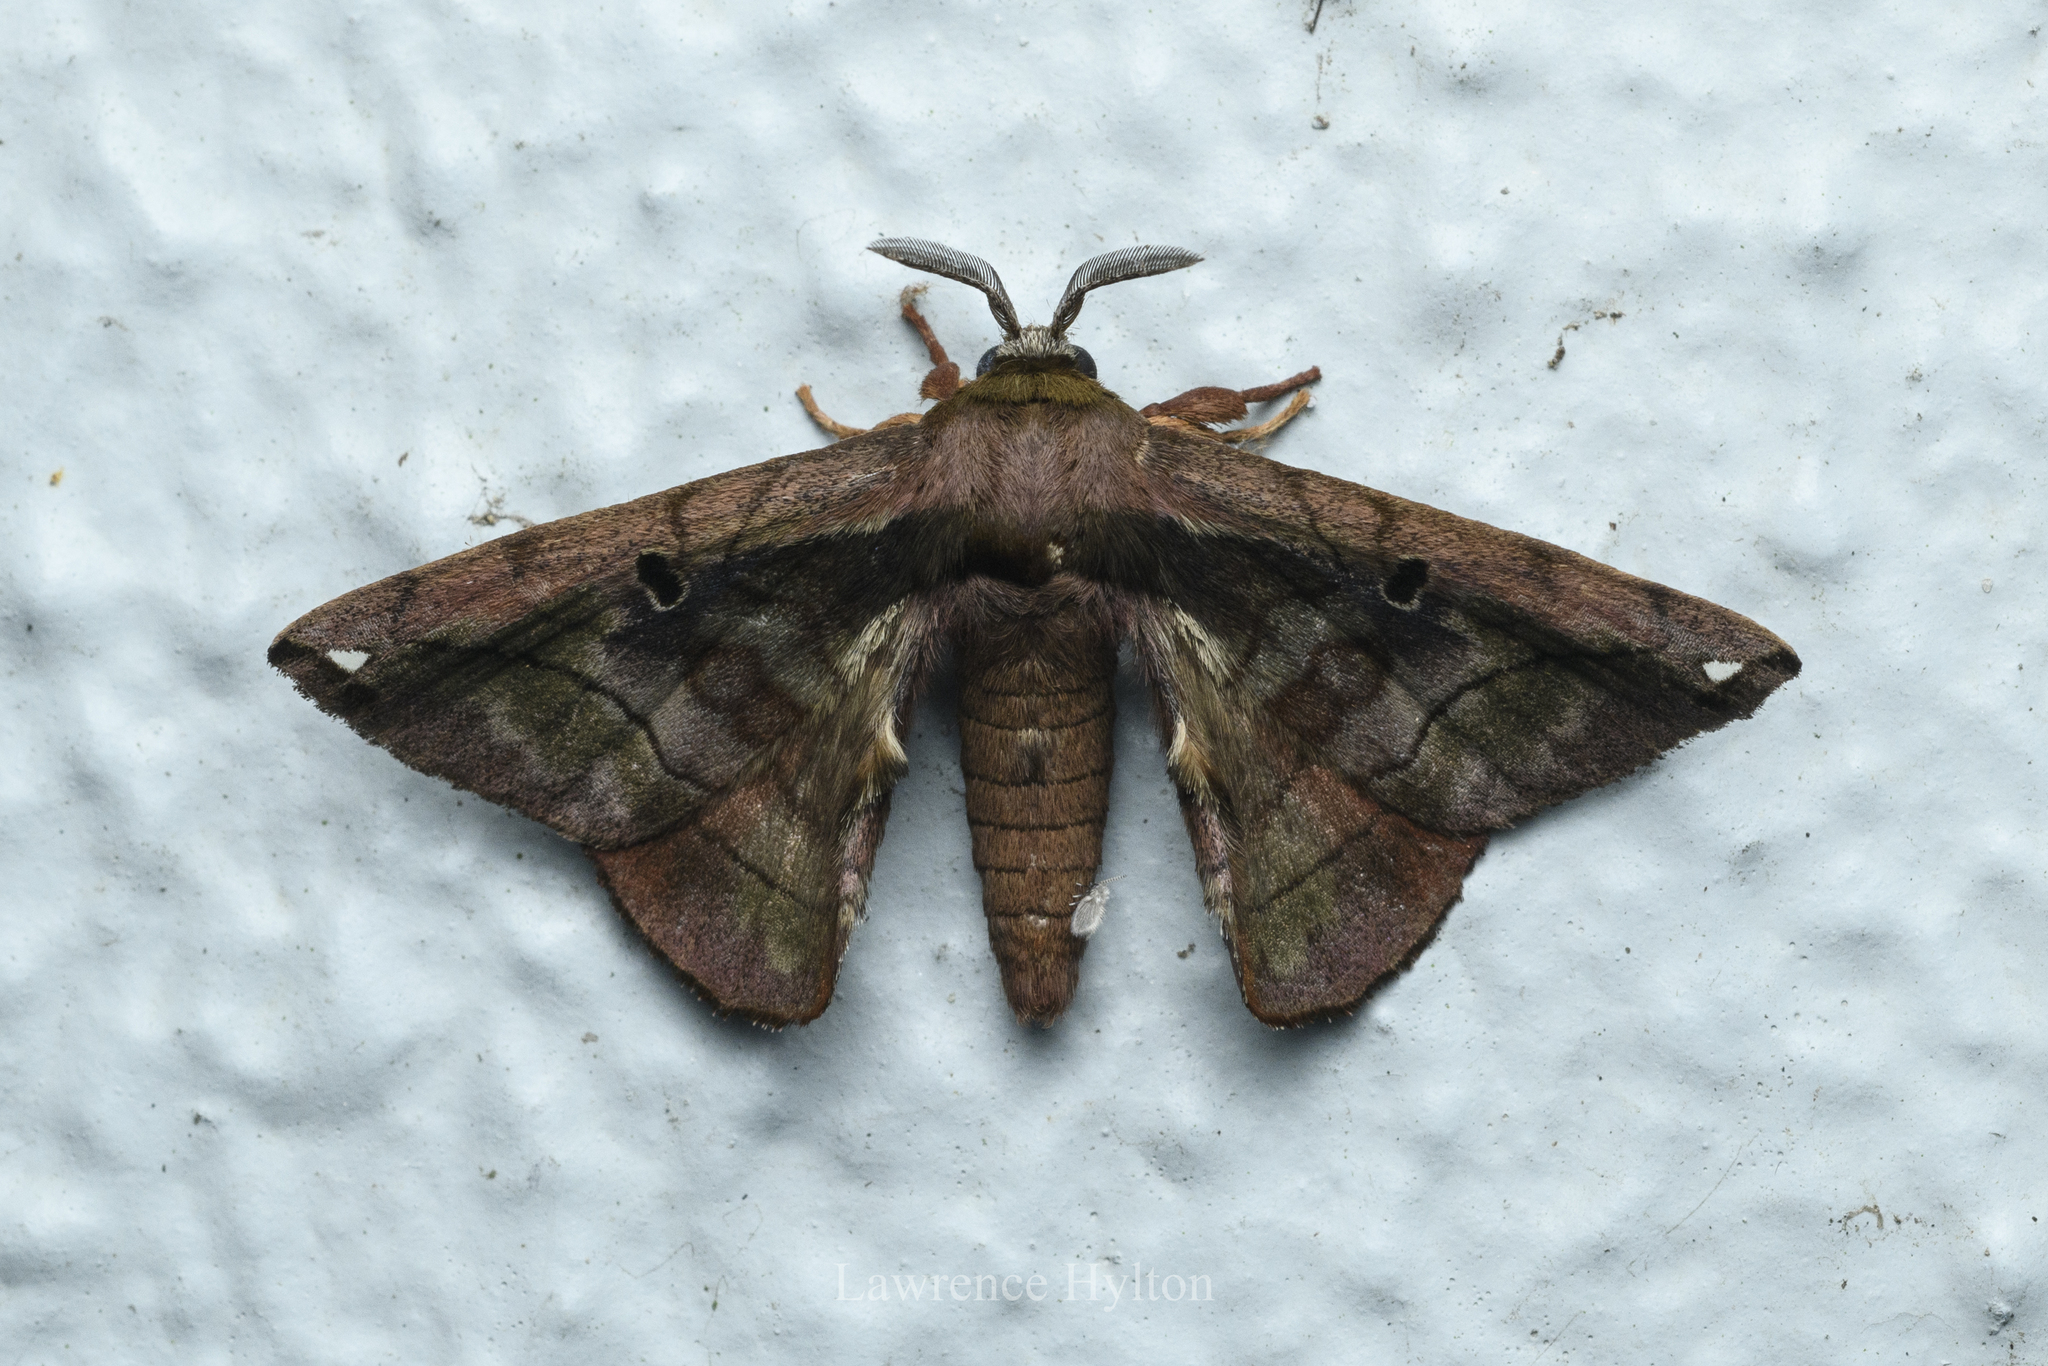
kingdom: Animalia
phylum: Arthropoda
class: Insecta
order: Lepidoptera
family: Endromidae
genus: Prismosticta
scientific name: Prismosticta microprisma
